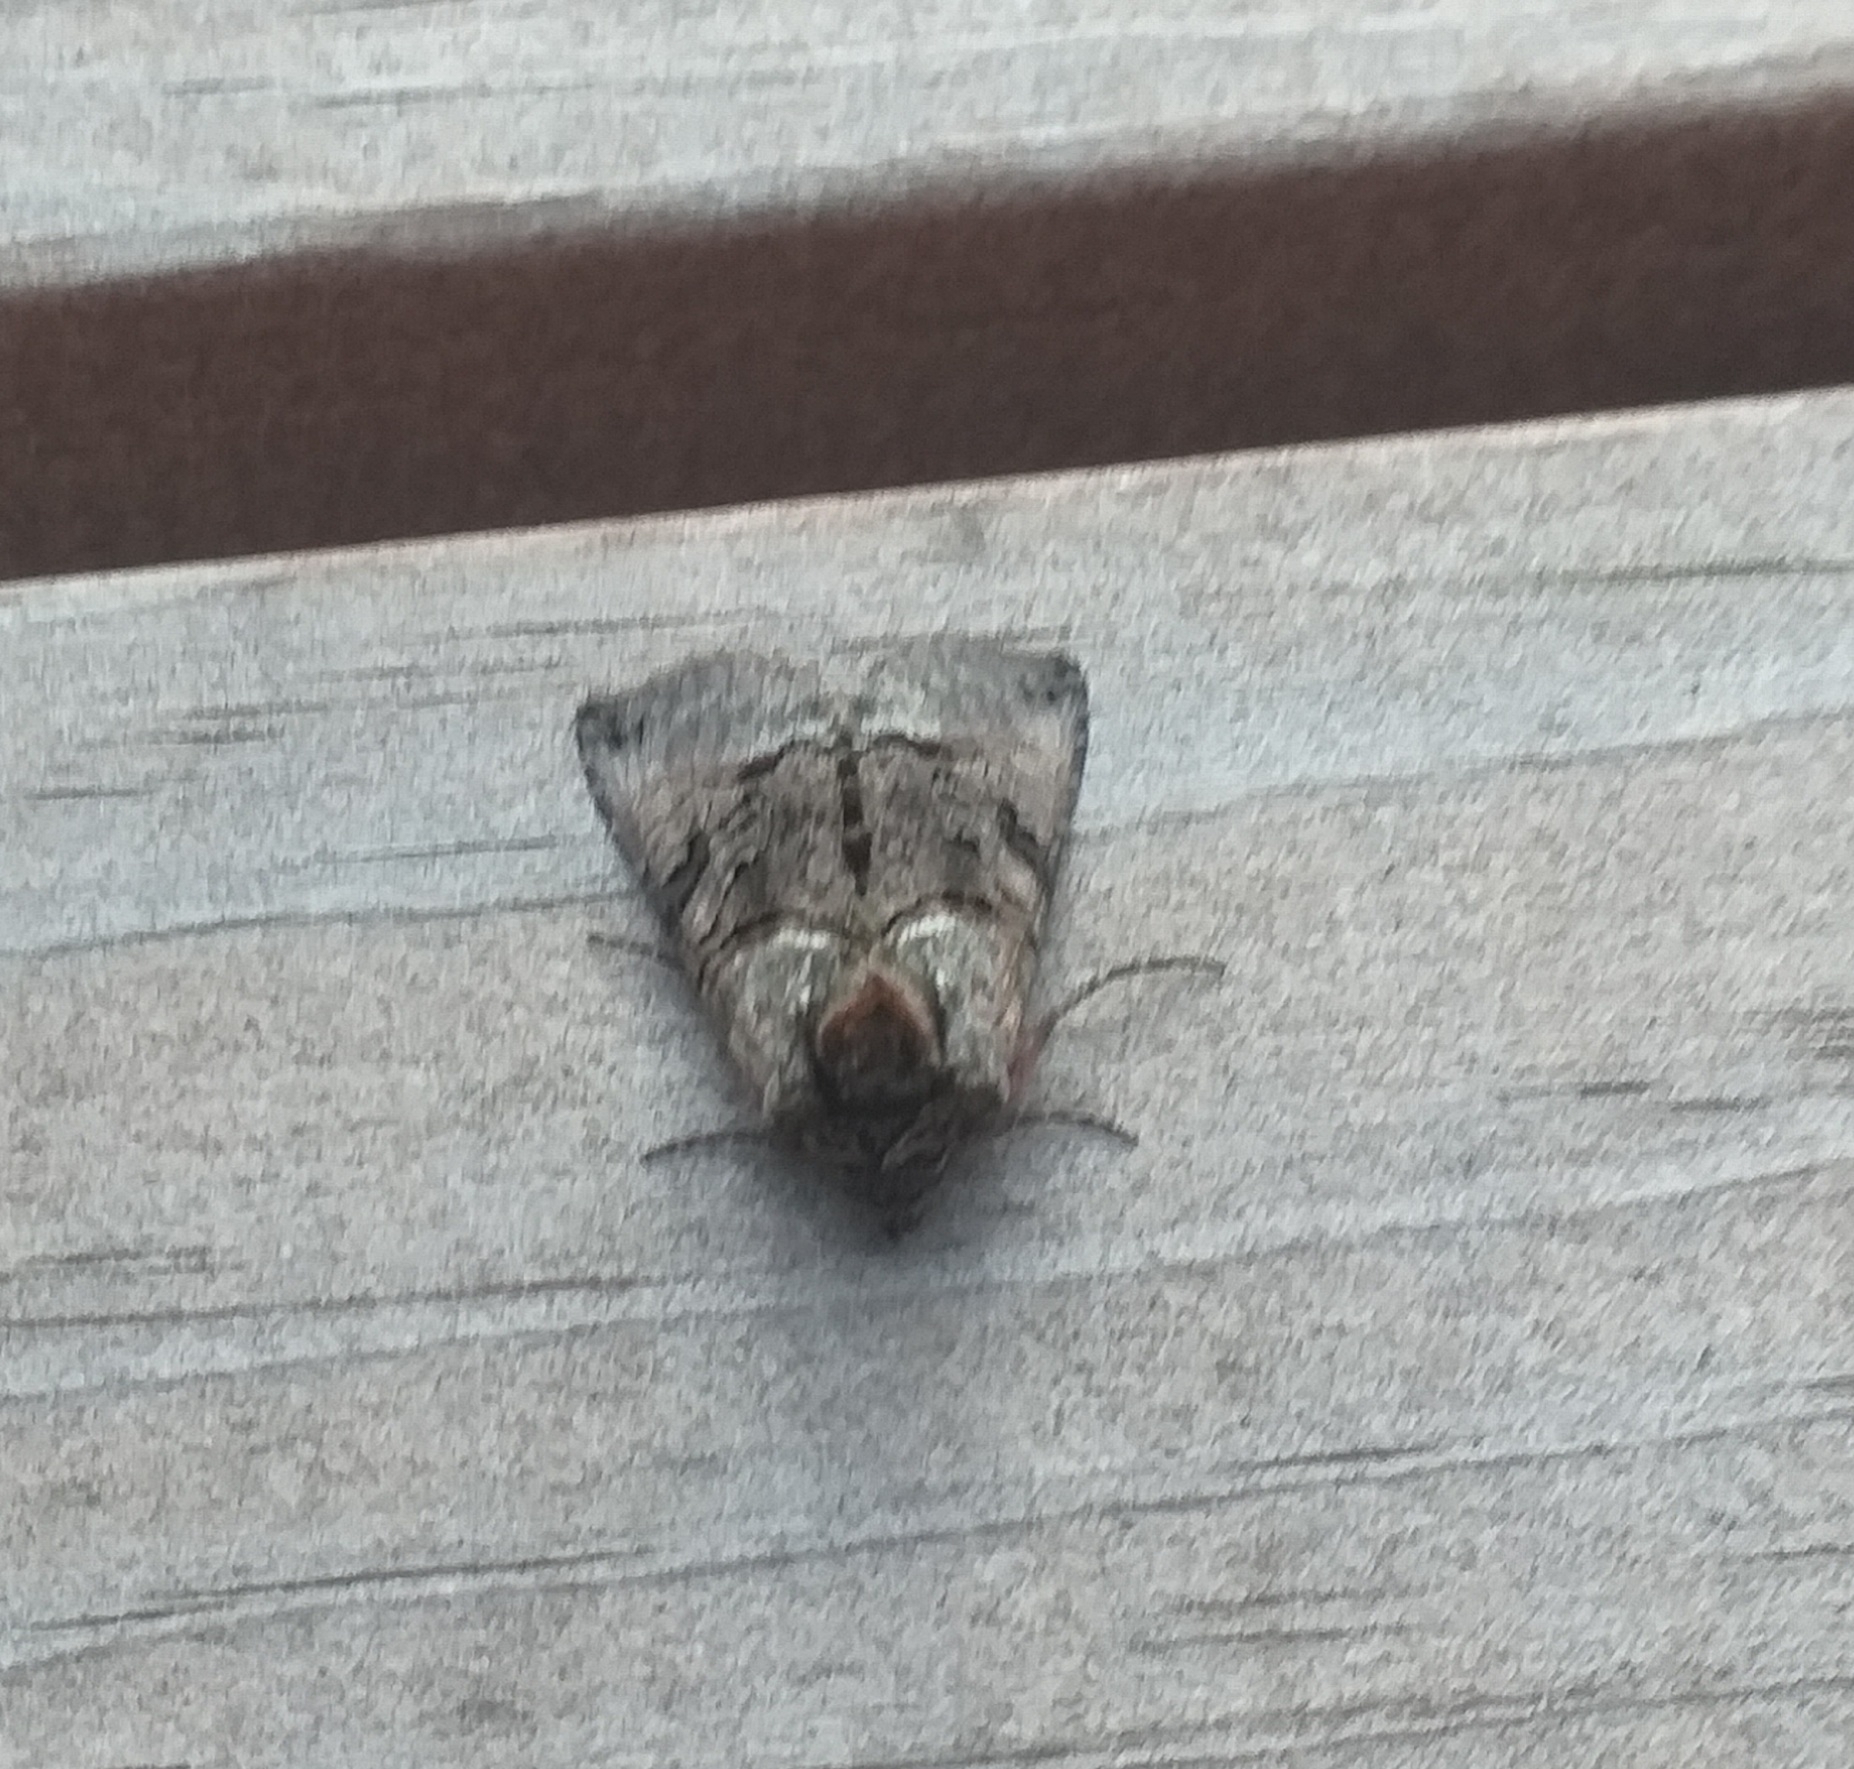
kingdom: Animalia
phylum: Arthropoda
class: Insecta
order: Lepidoptera
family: Noctuidae
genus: Abrostola
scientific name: Abrostola tripartita
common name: Spectacle
